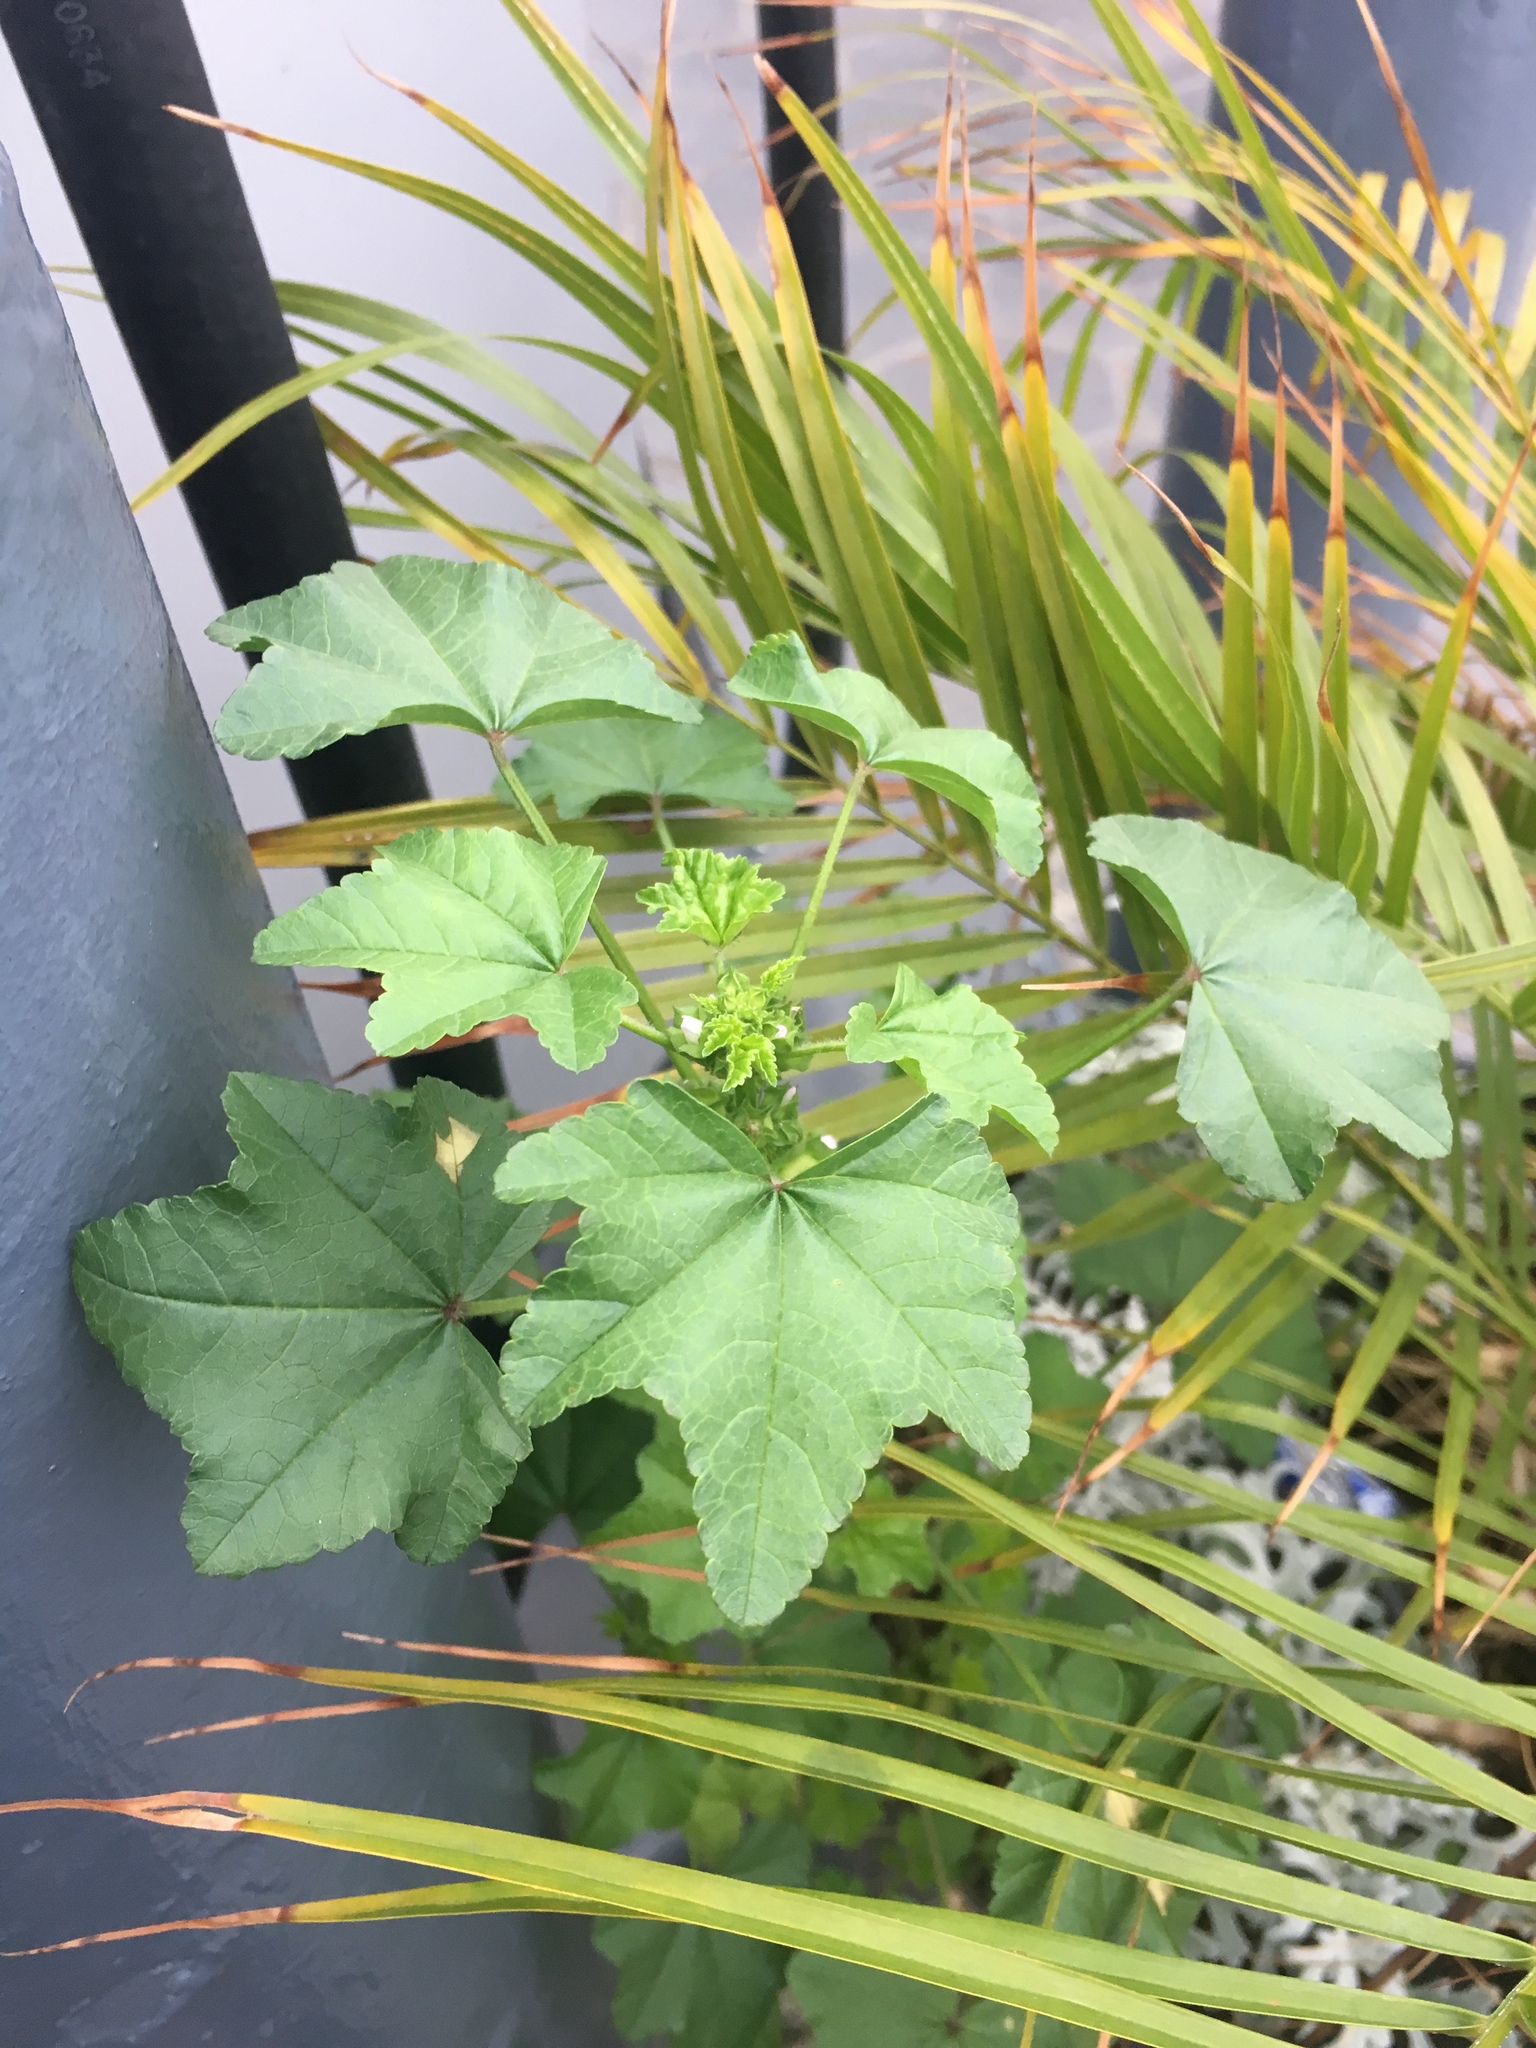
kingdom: Plantae
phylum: Tracheophyta
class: Magnoliopsida
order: Malvales
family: Malvaceae
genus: Malva
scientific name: Malva parviflora
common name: Least mallow
